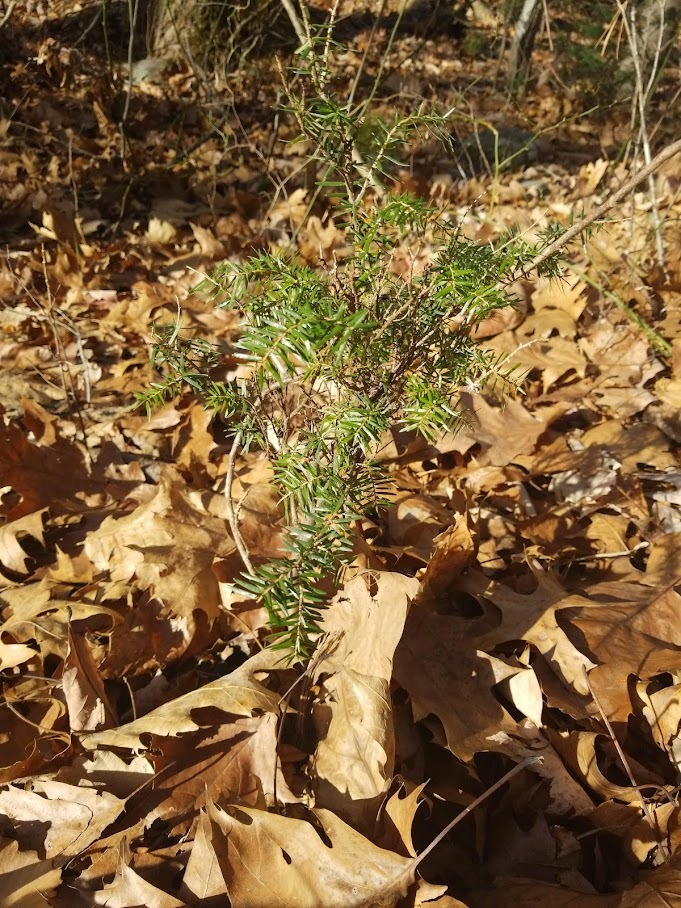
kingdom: Plantae
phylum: Tracheophyta
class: Pinopsida
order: Pinales
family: Pinaceae
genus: Tsuga
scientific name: Tsuga canadensis
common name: Eastern hemlock
